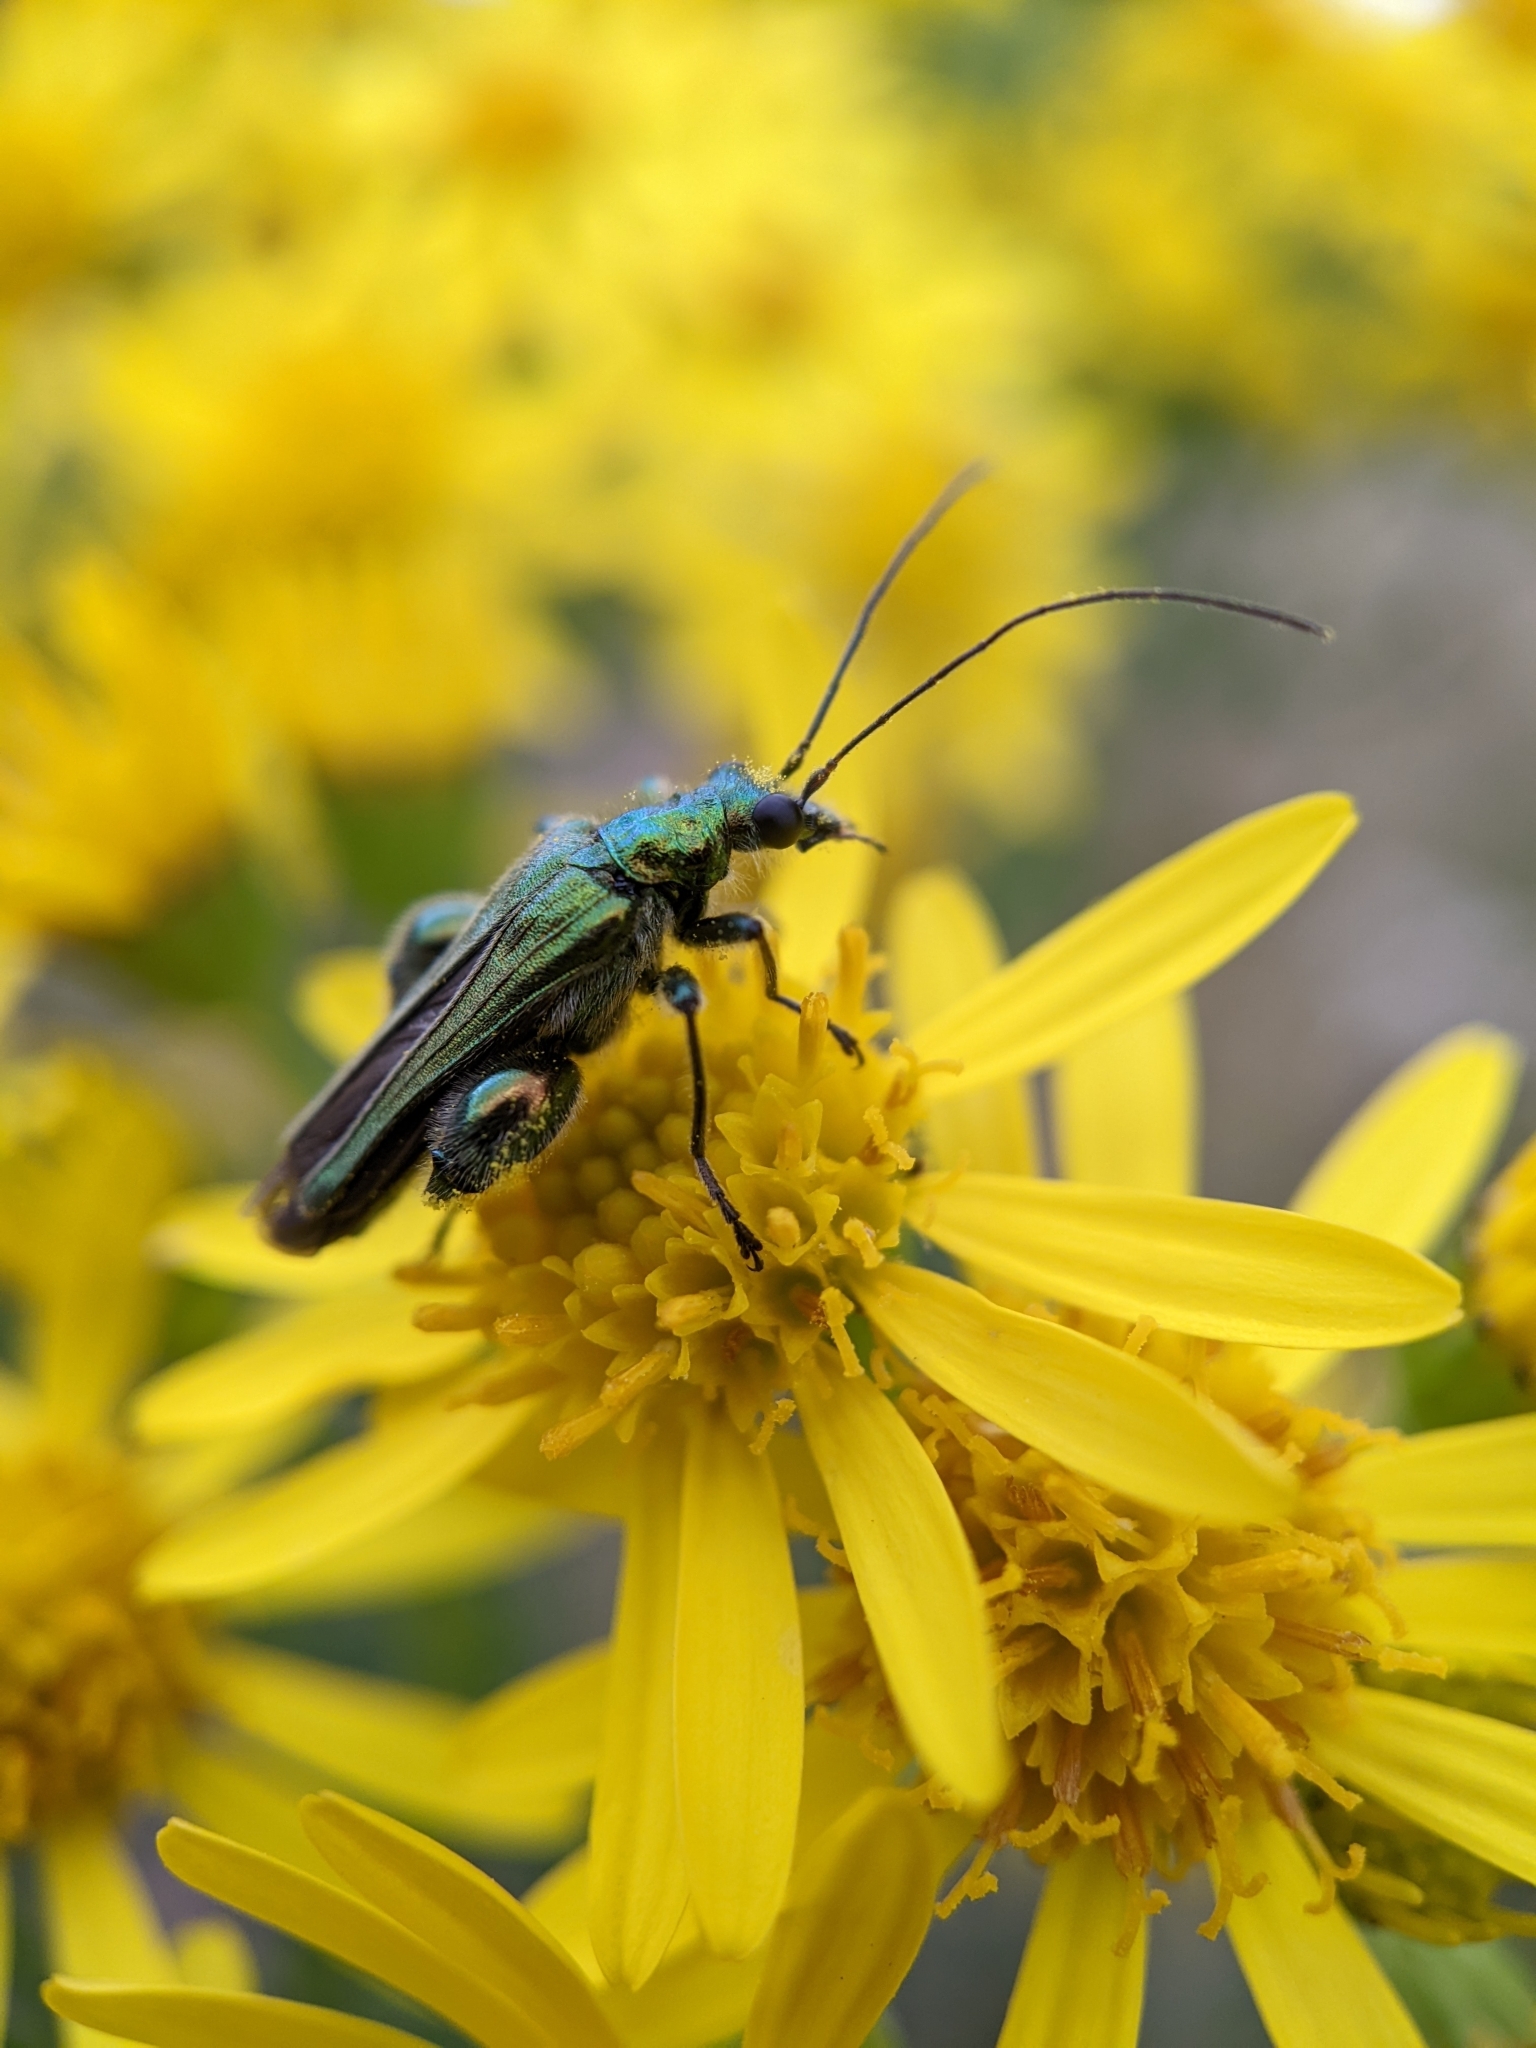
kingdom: Animalia
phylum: Arthropoda
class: Insecta
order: Coleoptera
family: Oedemeridae
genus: Oedemera
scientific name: Oedemera nobilis
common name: Swollen-thighed beetle
